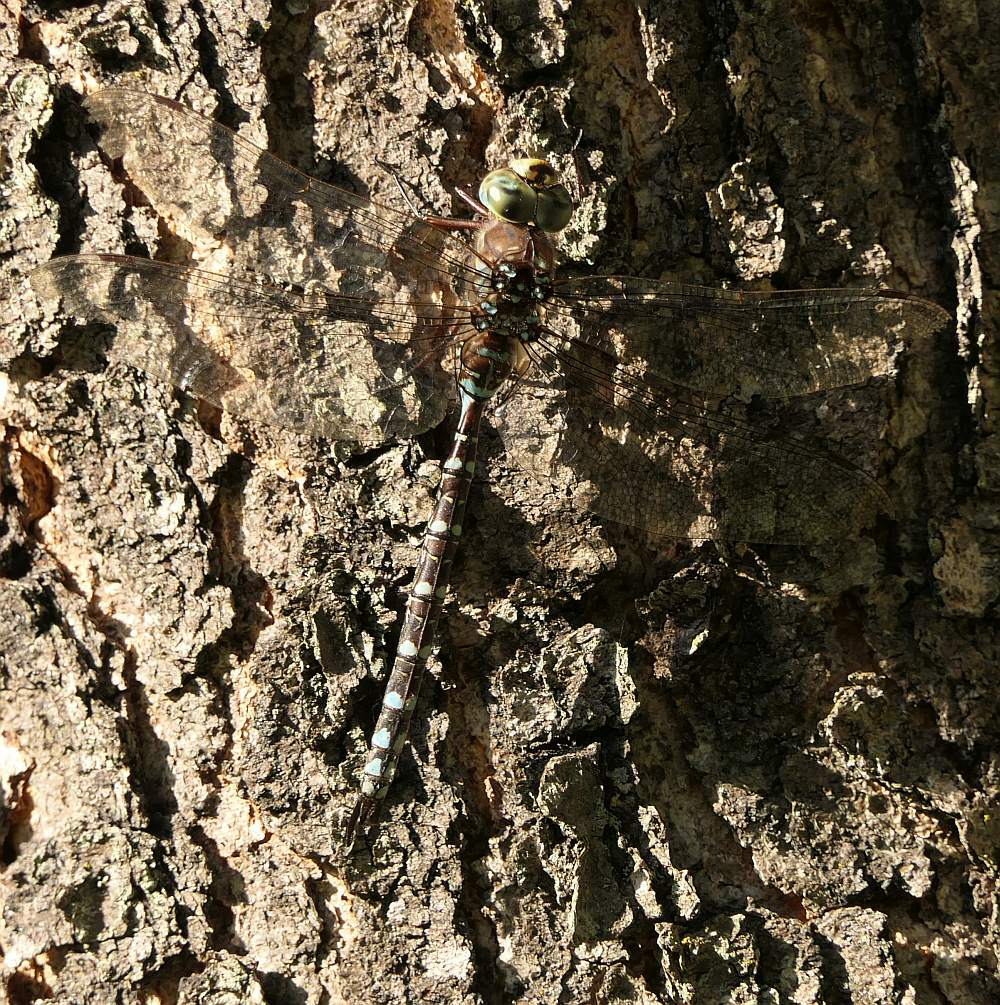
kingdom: Animalia
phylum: Arthropoda
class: Insecta
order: Odonata
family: Aeshnidae
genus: Aeshna
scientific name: Aeshna canadensis
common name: Canada darner
